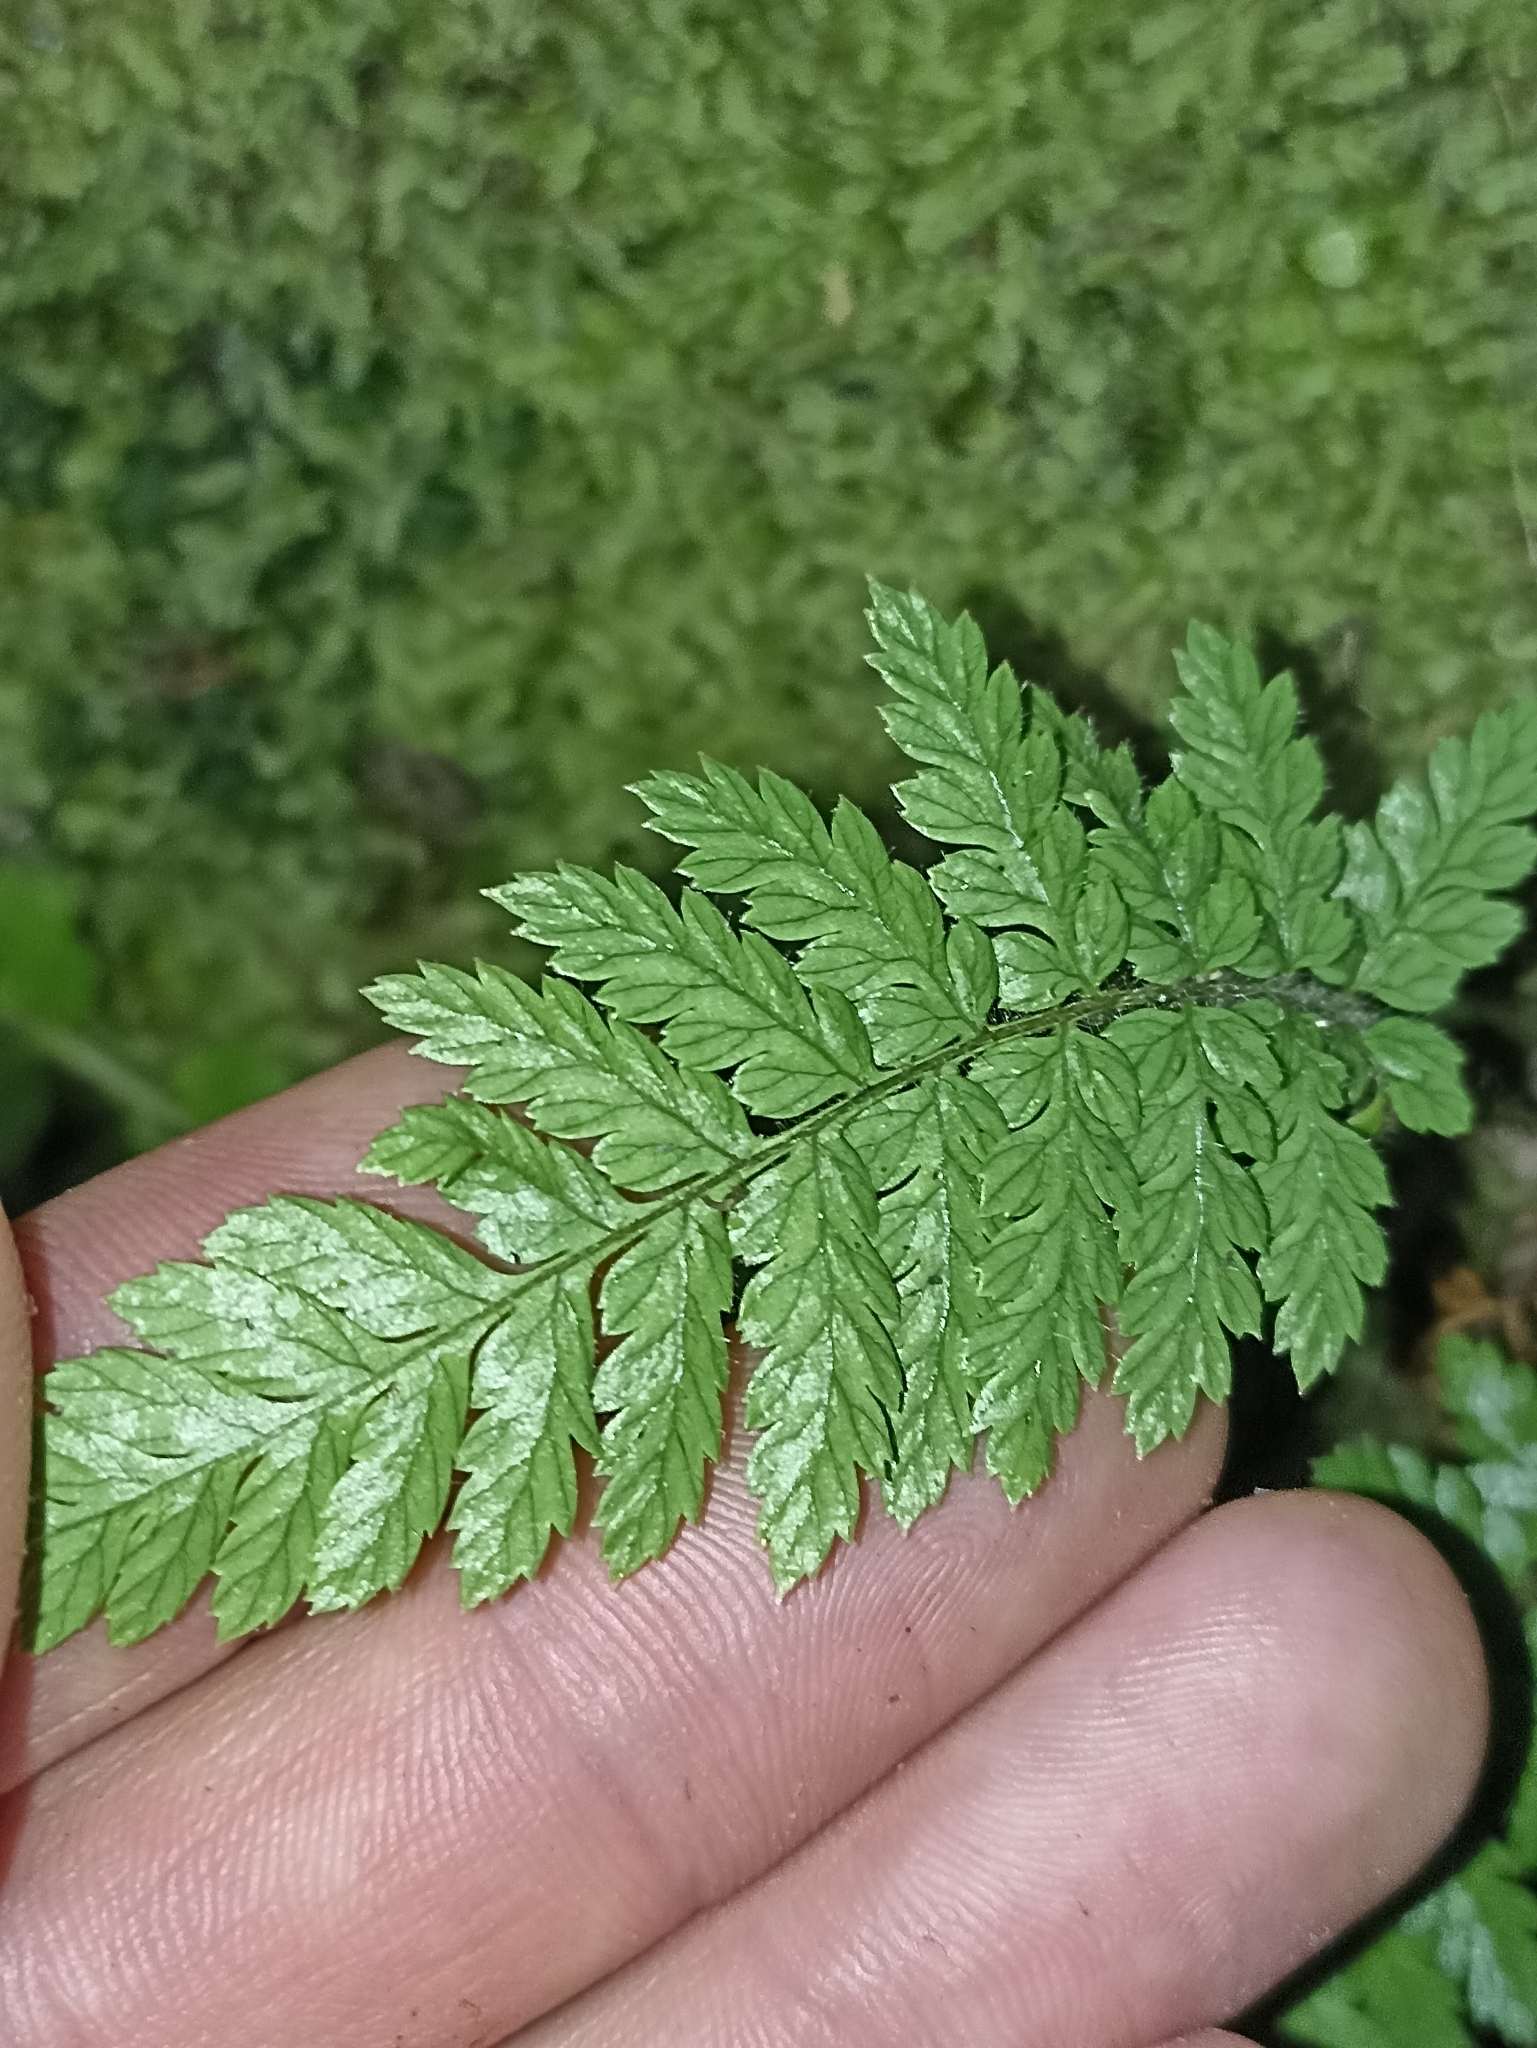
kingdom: Plantae
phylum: Tracheophyta
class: Polypodiopsida
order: Cyatheales
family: Dicksoniaceae
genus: Dicksonia
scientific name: Dicksonia squarrosa
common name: Hard treefern
